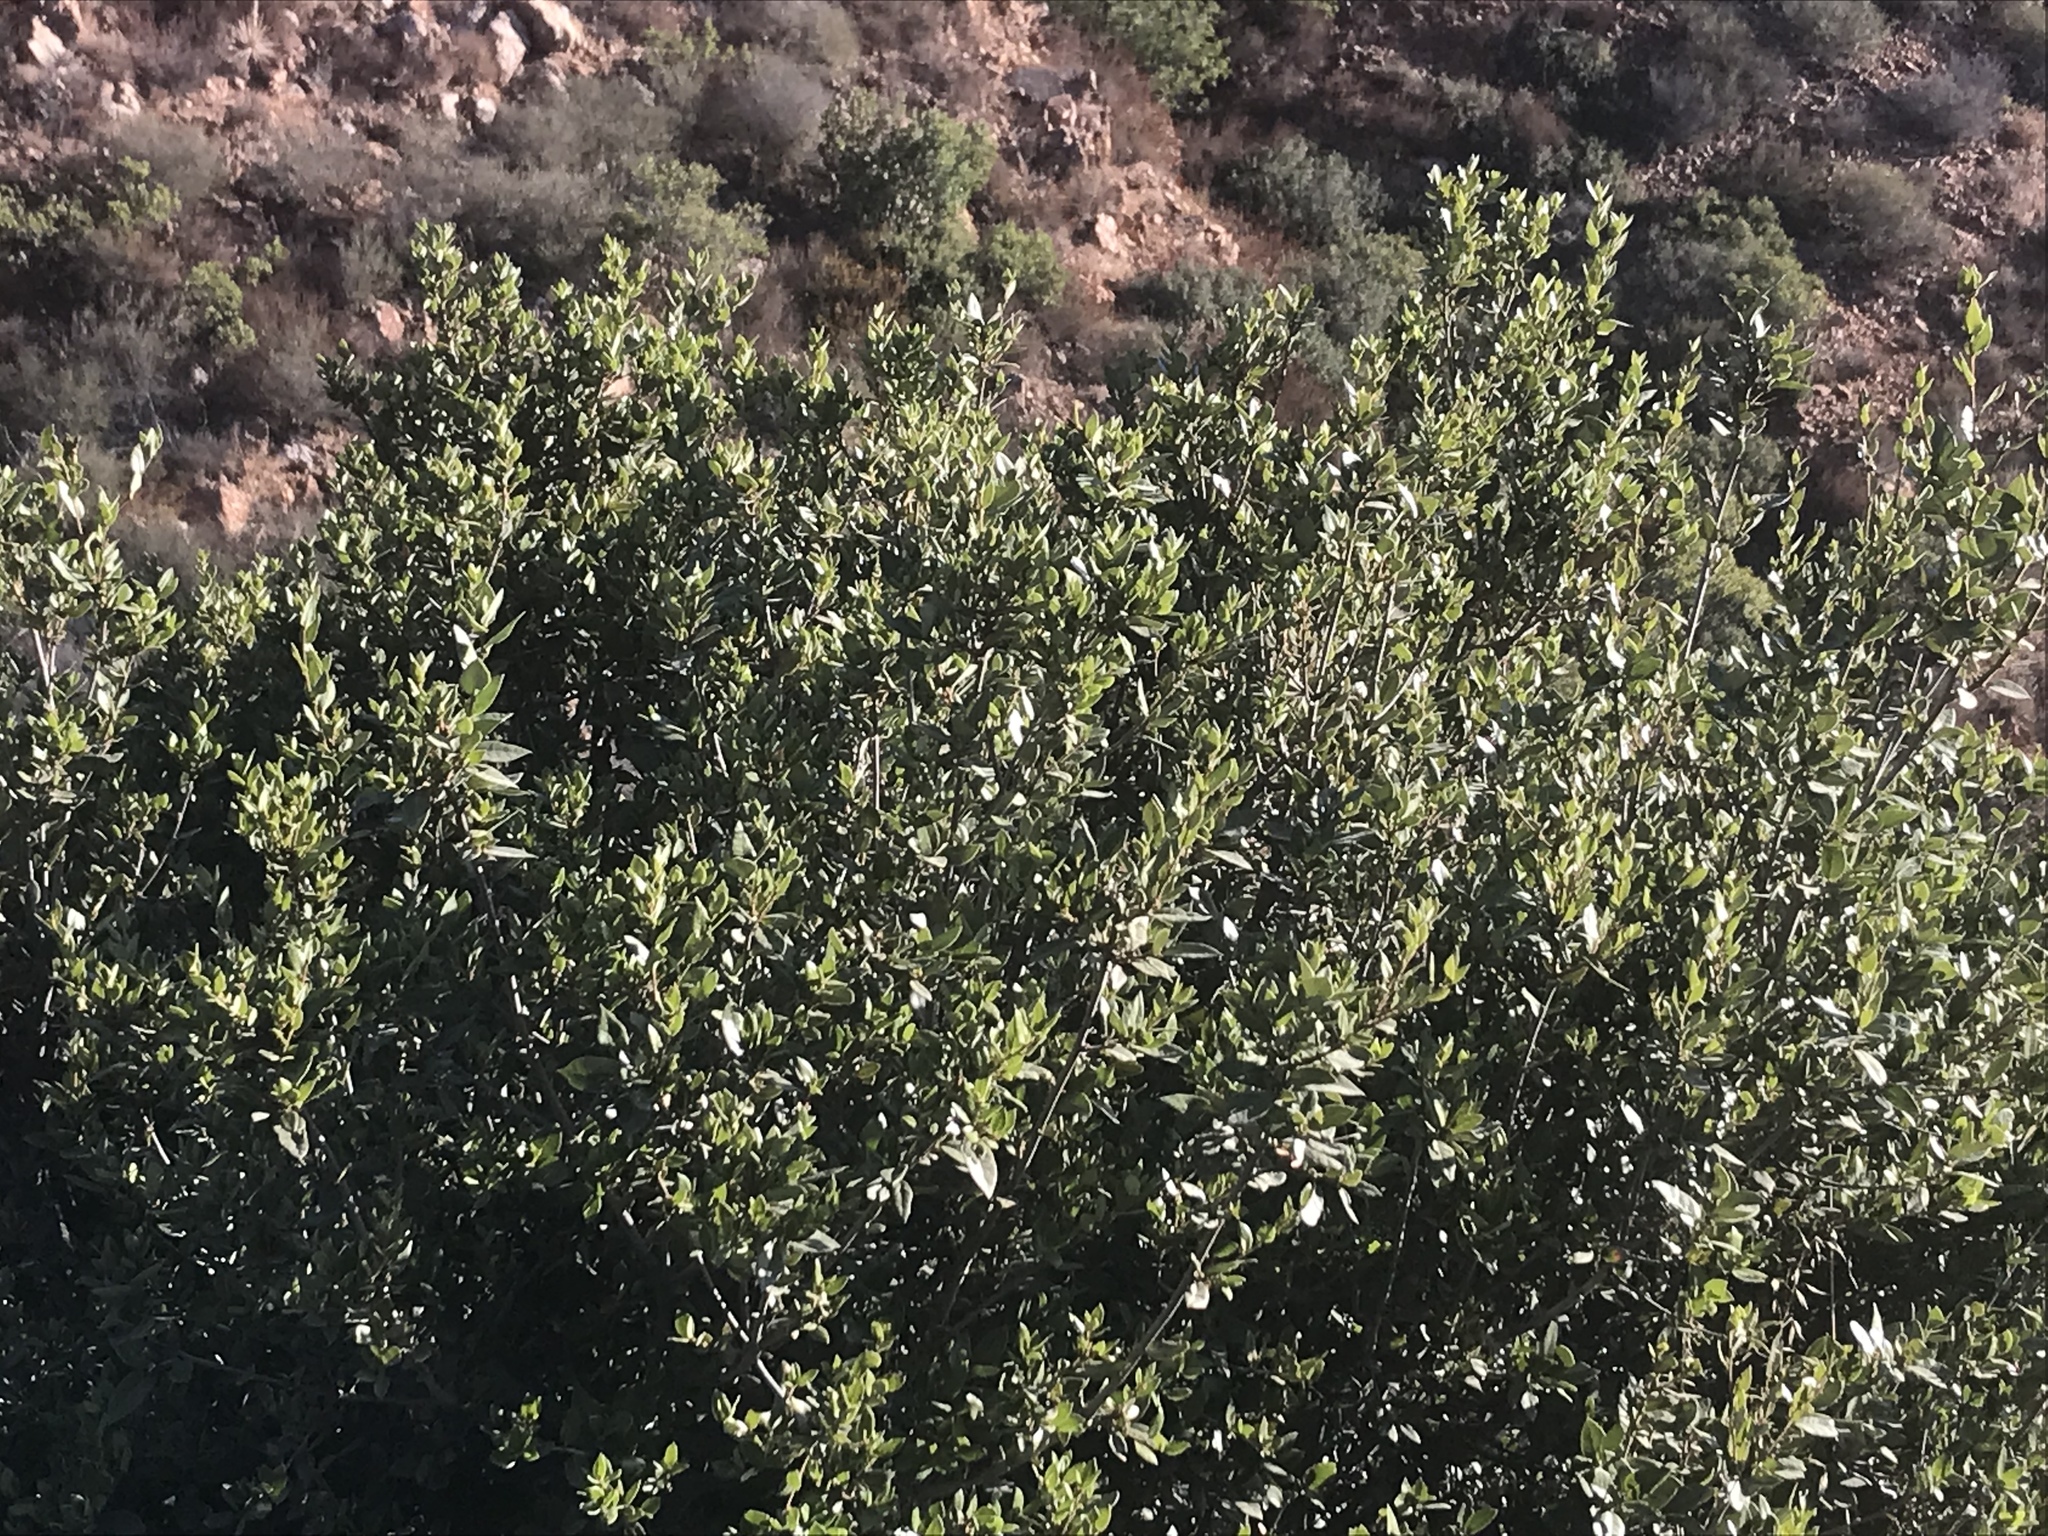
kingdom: Plantae
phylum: Tracheophyta
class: Magnoliopsida
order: Fagales
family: Fagaceae
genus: Quercus
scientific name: Quercus cedrosensis
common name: Cedros island oak
